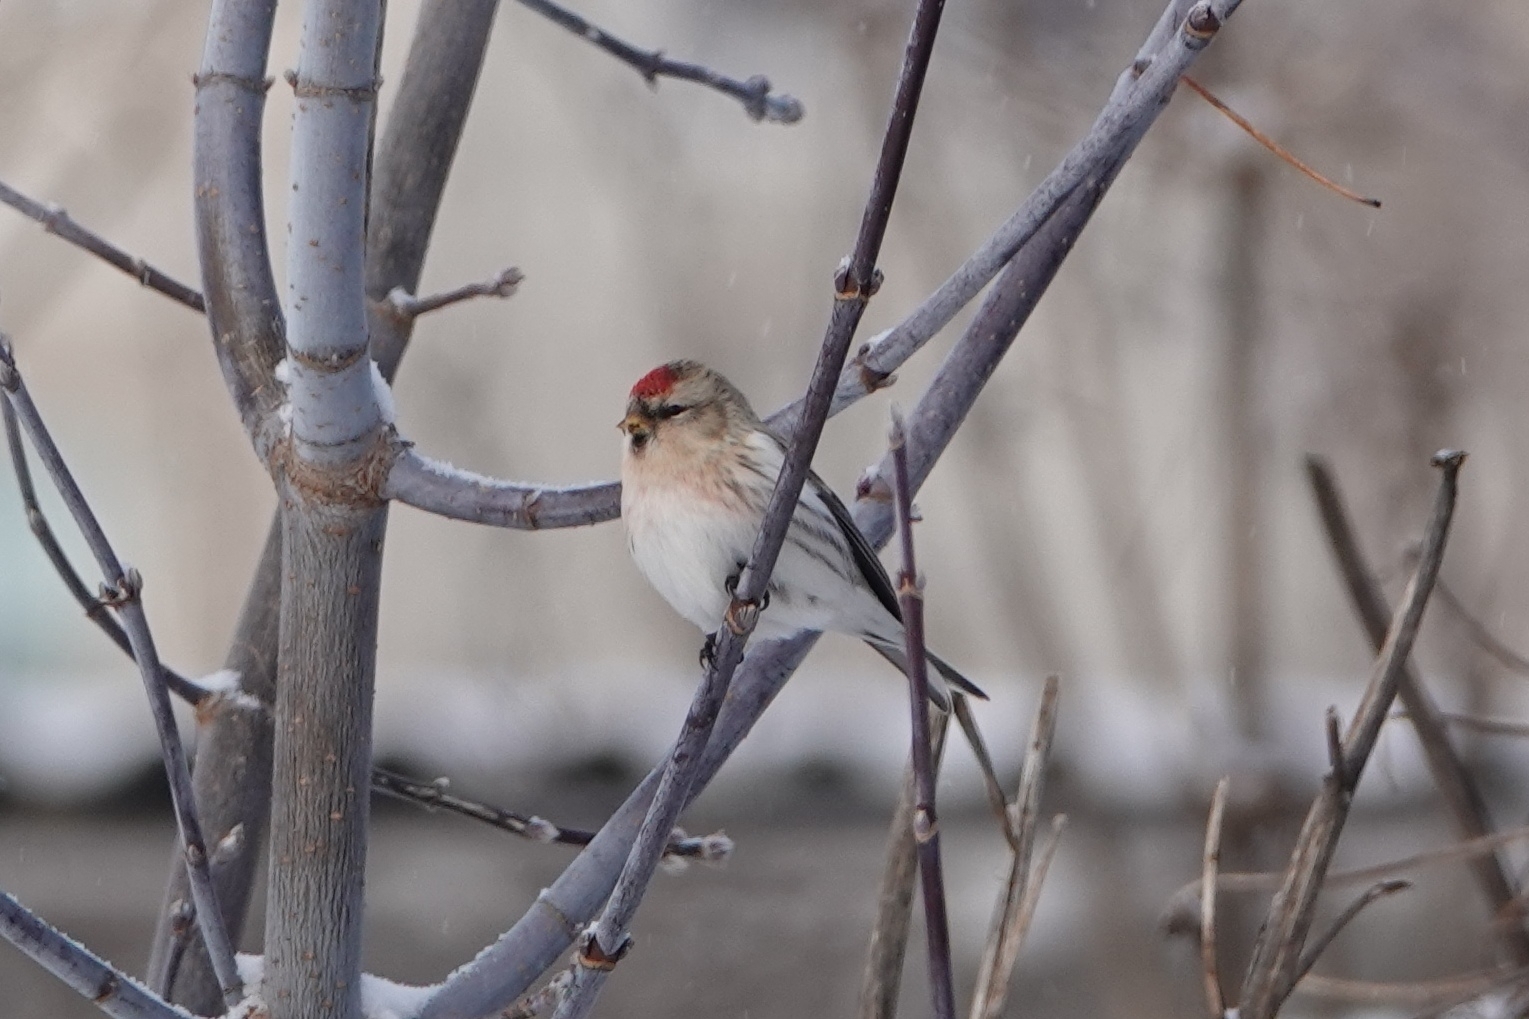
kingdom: Animalia
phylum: Chordata
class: Aves
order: Passeriformes
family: Fringillidae
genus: Acanthis
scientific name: Acanthis hornemanni
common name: Arctic redpoll
